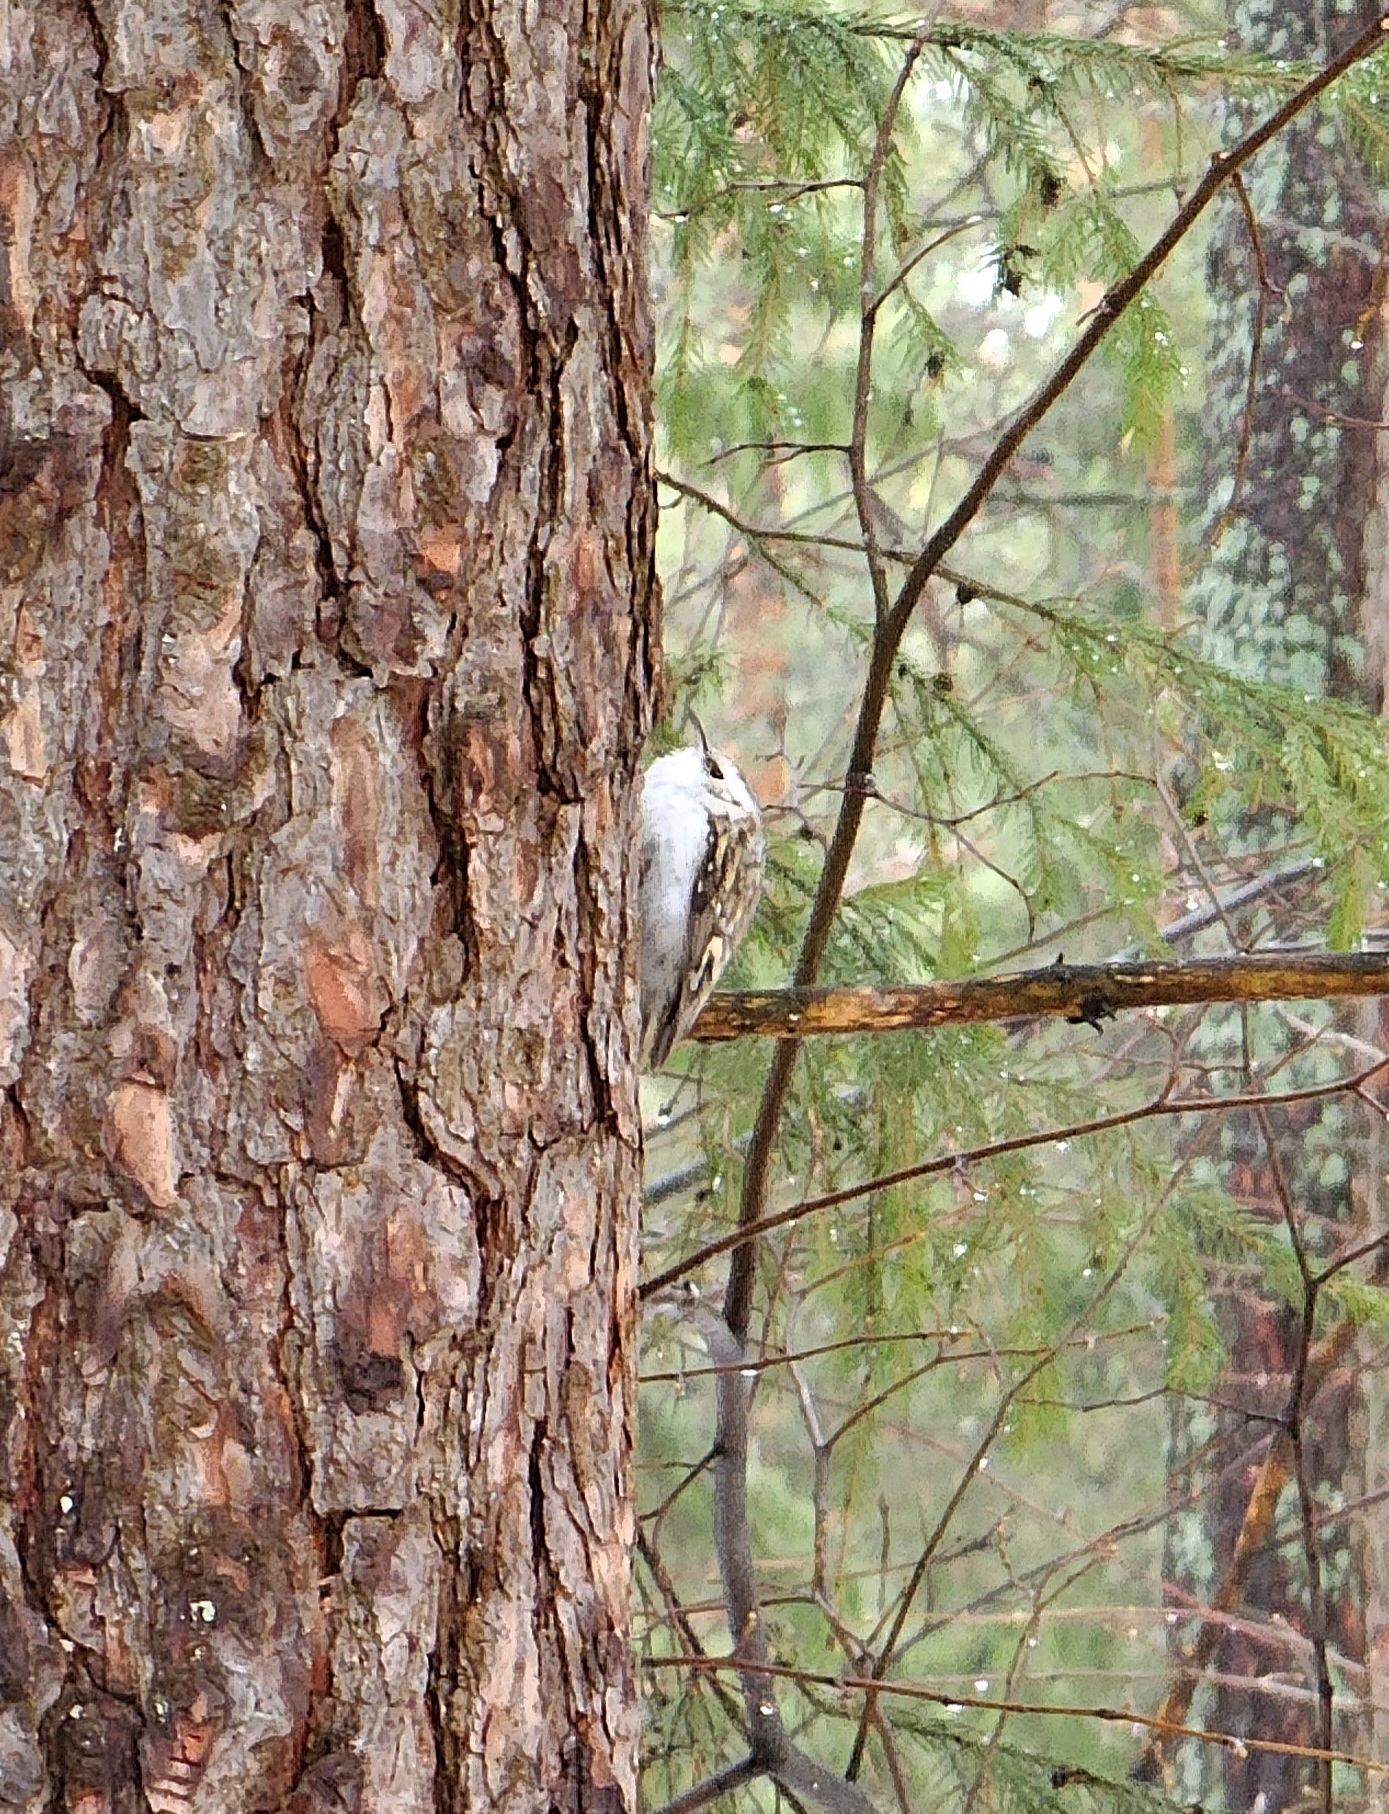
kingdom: Animalia
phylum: Chordata
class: Aves
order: Passeriformes
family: Certhiidae
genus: Certhia
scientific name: Certhia familiaris
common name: Eurasian treecreeper
